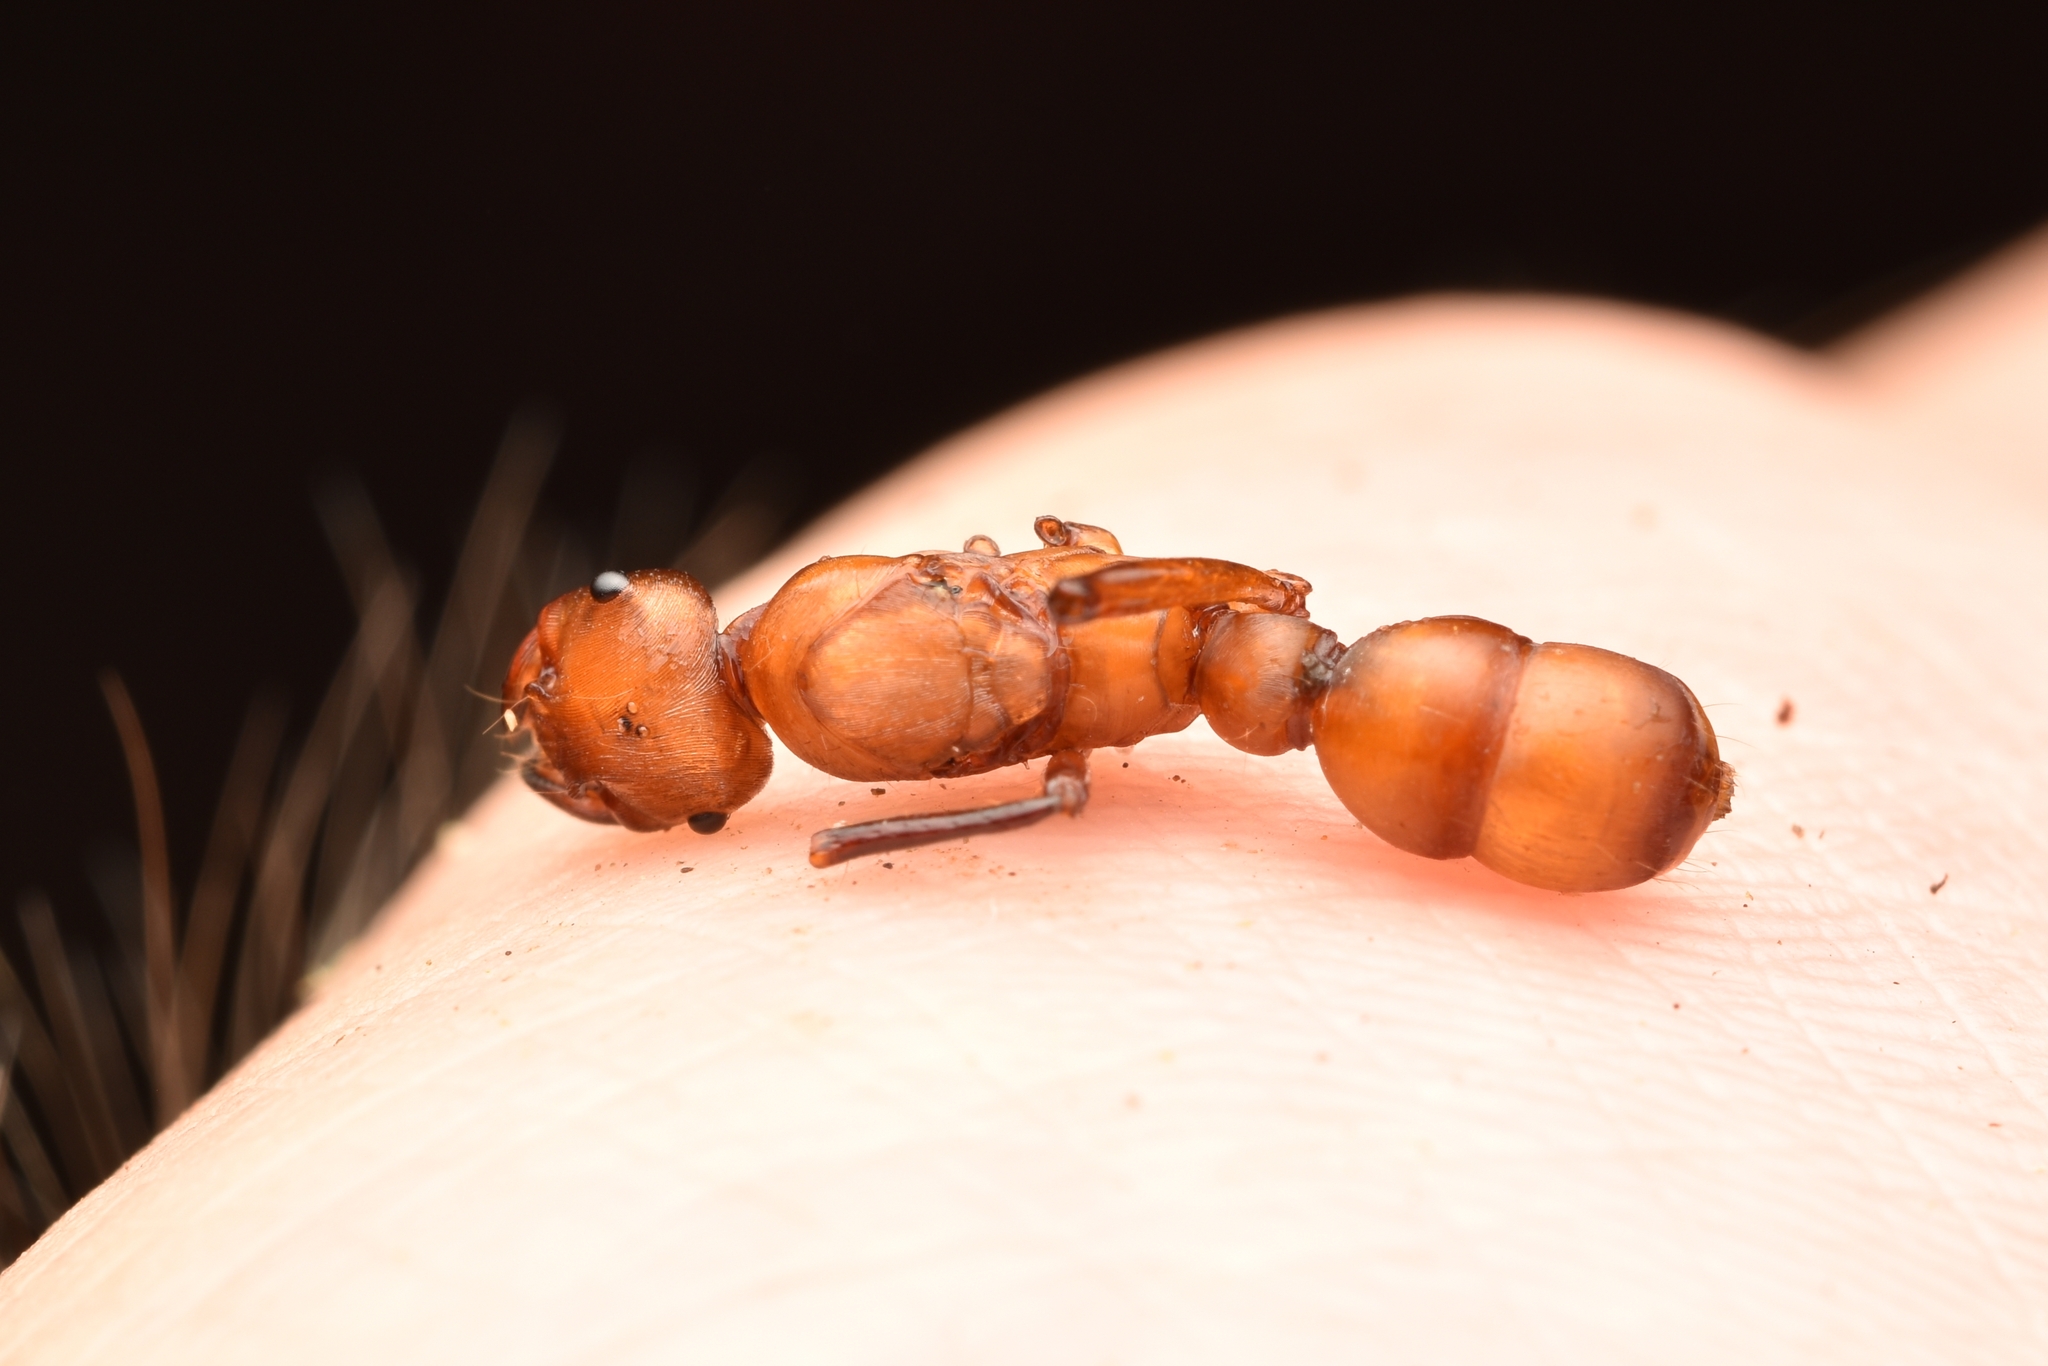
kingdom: Animalia
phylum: Arthropoda
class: Insecta
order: Hymenoptera
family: Formicidae
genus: Gnamptogenys
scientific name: Gnamptogenys concinna
